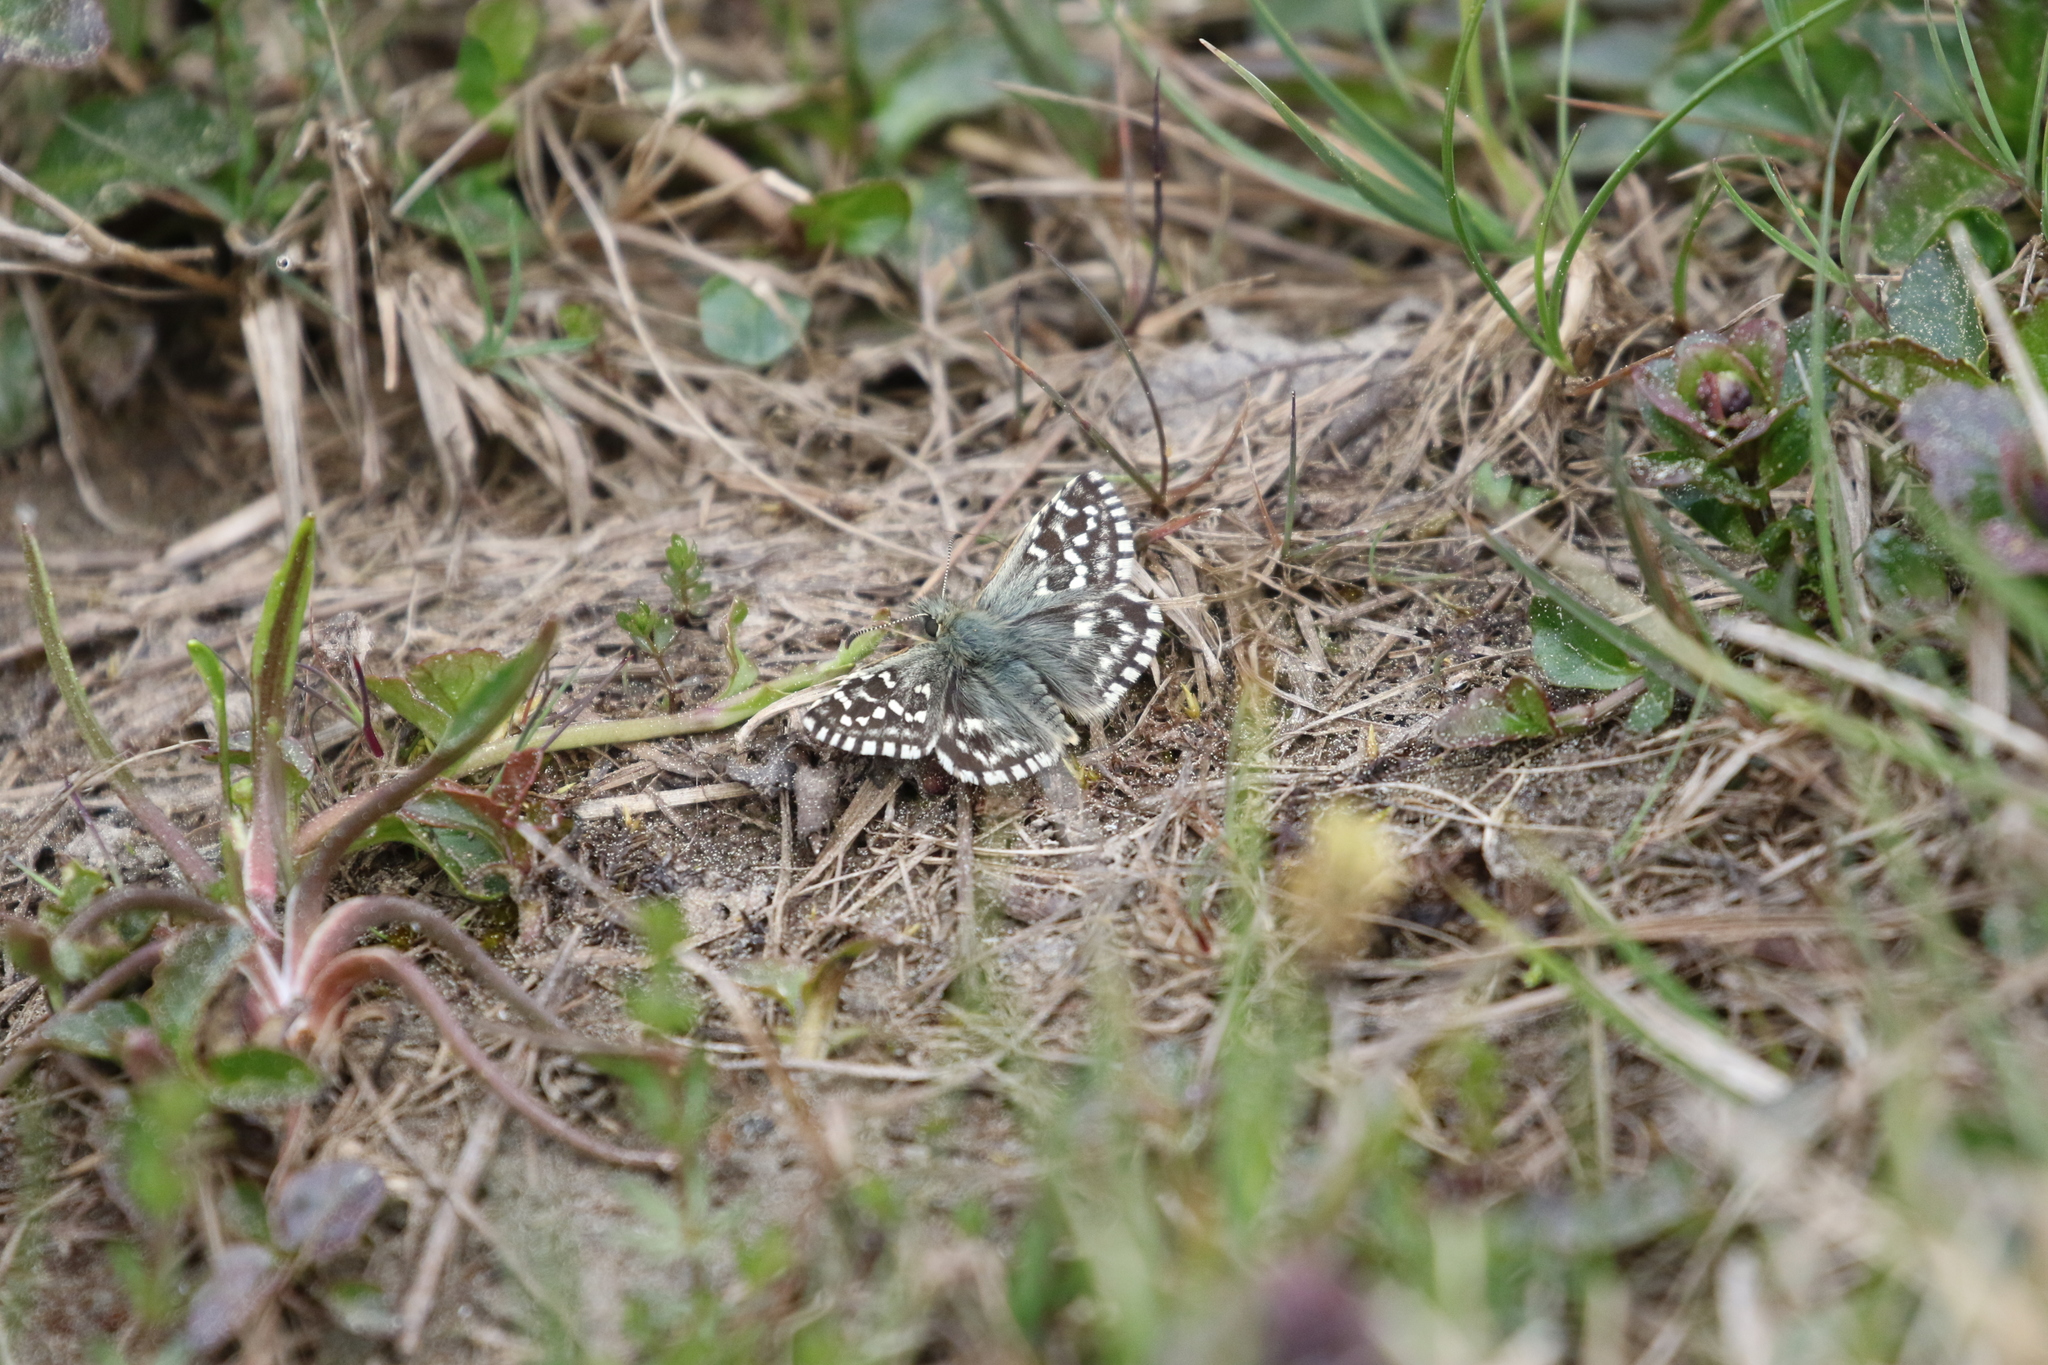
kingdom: Animalia
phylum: Arthropoda
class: Insecta
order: Lepidoptera
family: Hesperiidae
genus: Pyrgus
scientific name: Pyrgus malvae
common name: Grizzled skipper
